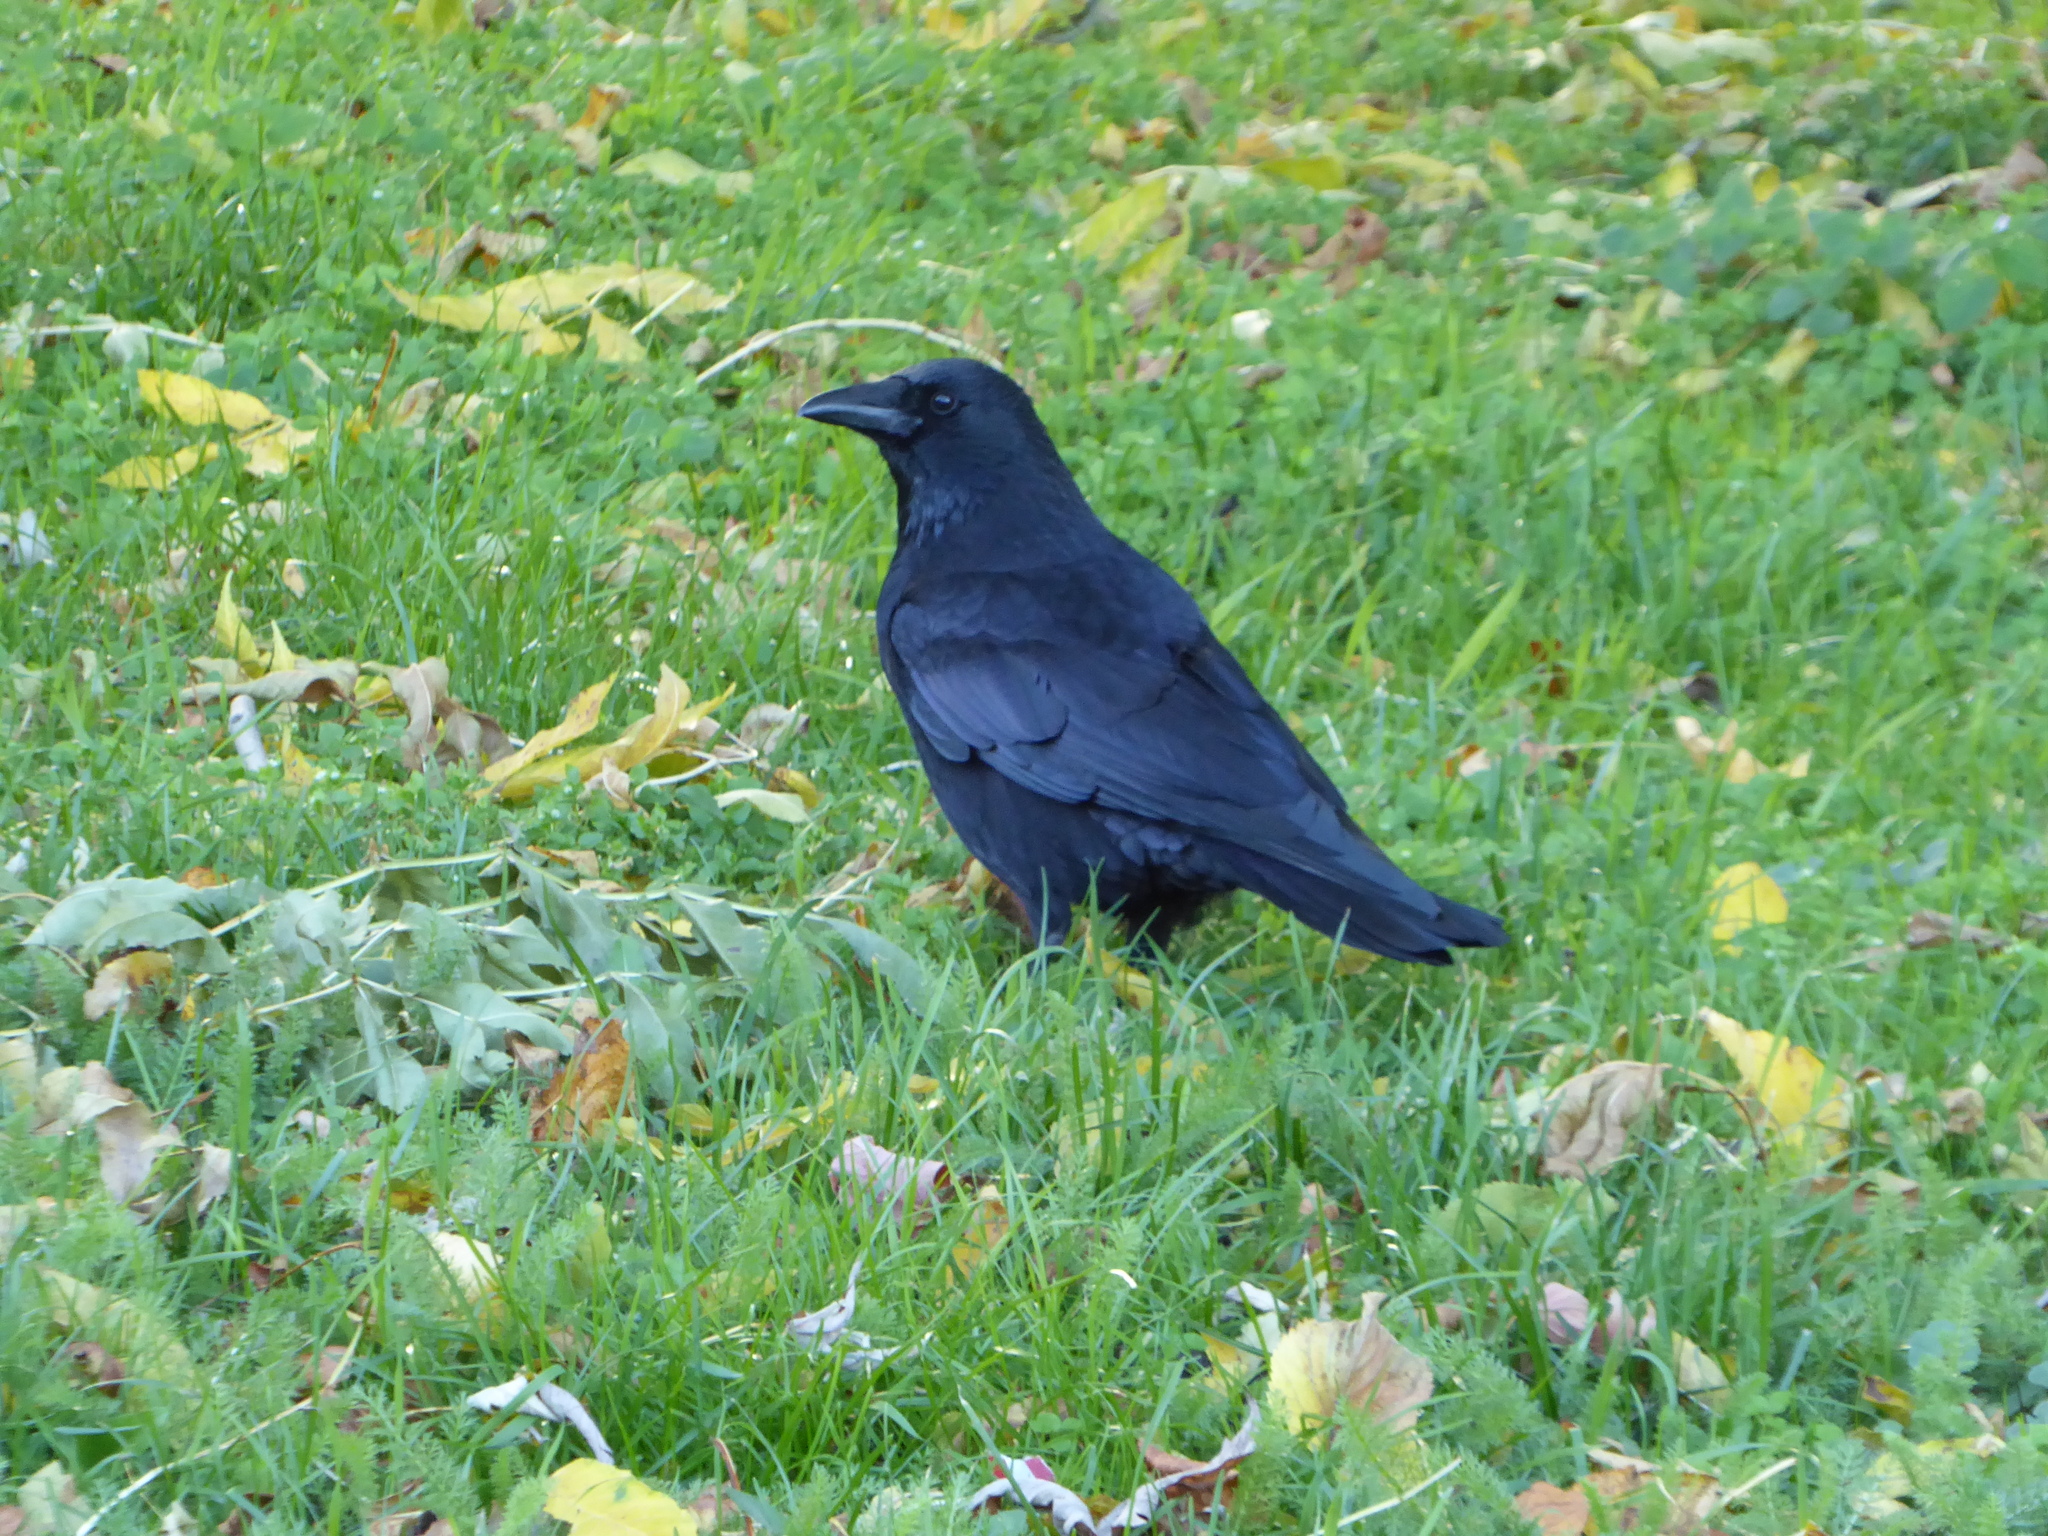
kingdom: Animalia
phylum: Chordata
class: Aves
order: Passeriformes
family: Corvidae
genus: Corvus
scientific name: Corvus corone
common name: Carrion crow
